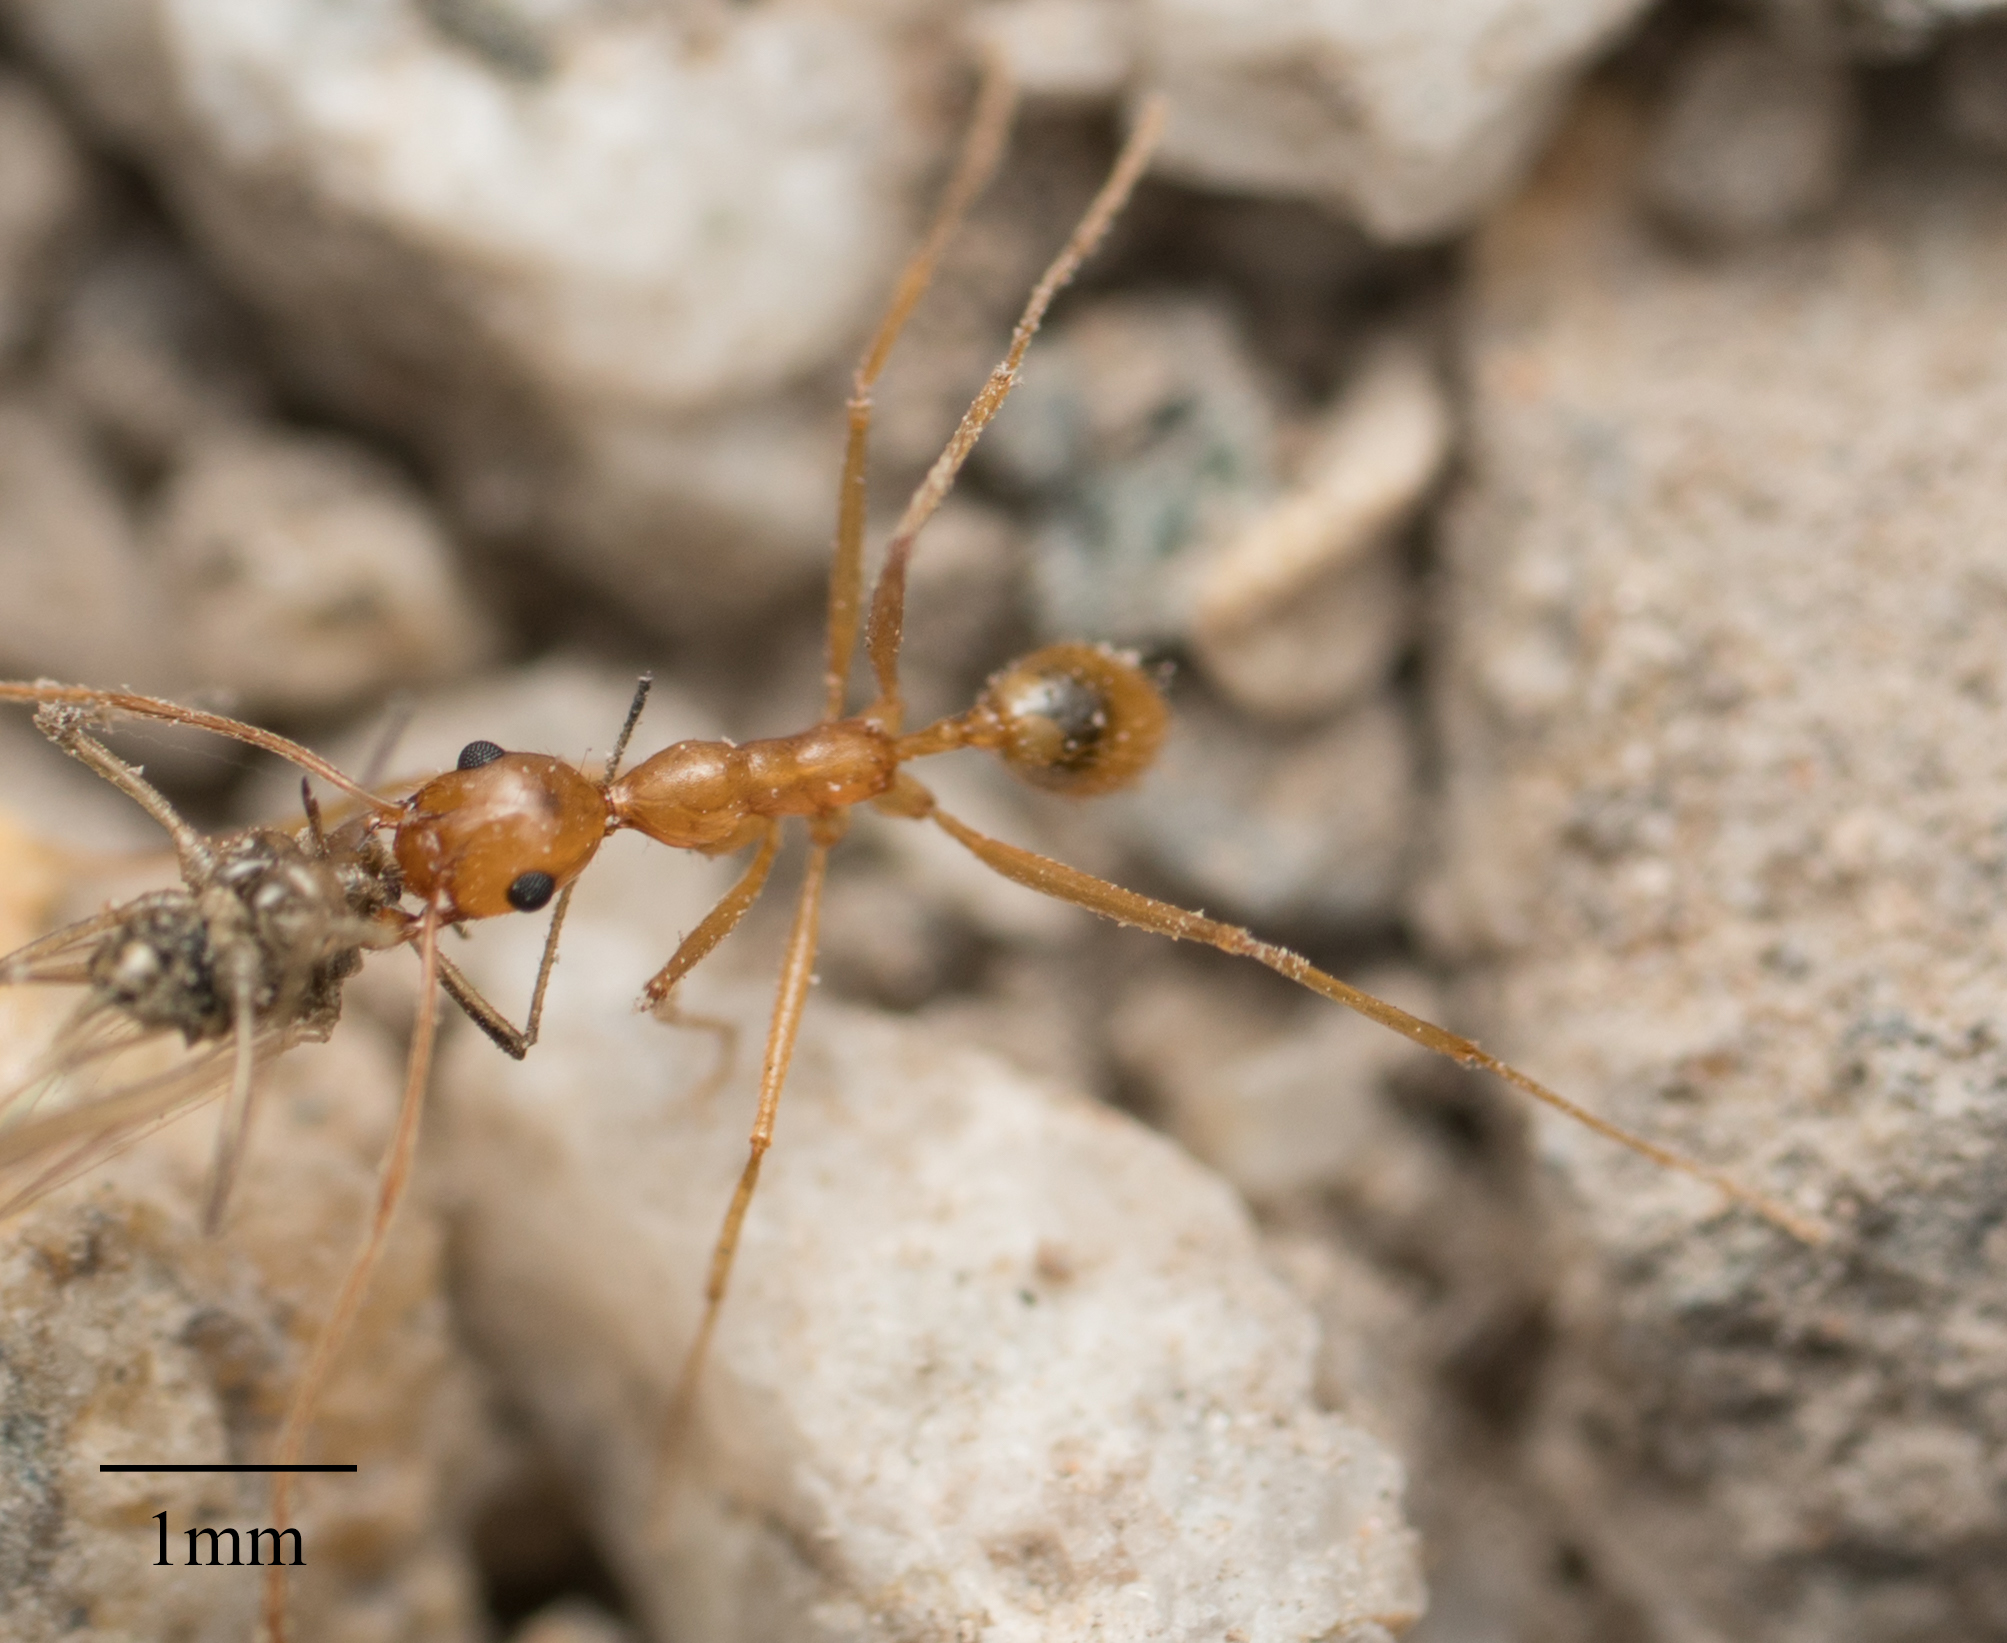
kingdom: Animalia
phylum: Arthropoda
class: Insecta
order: Hymenoptera
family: Formicidae
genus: Pheidole
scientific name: Pheidole vistana
